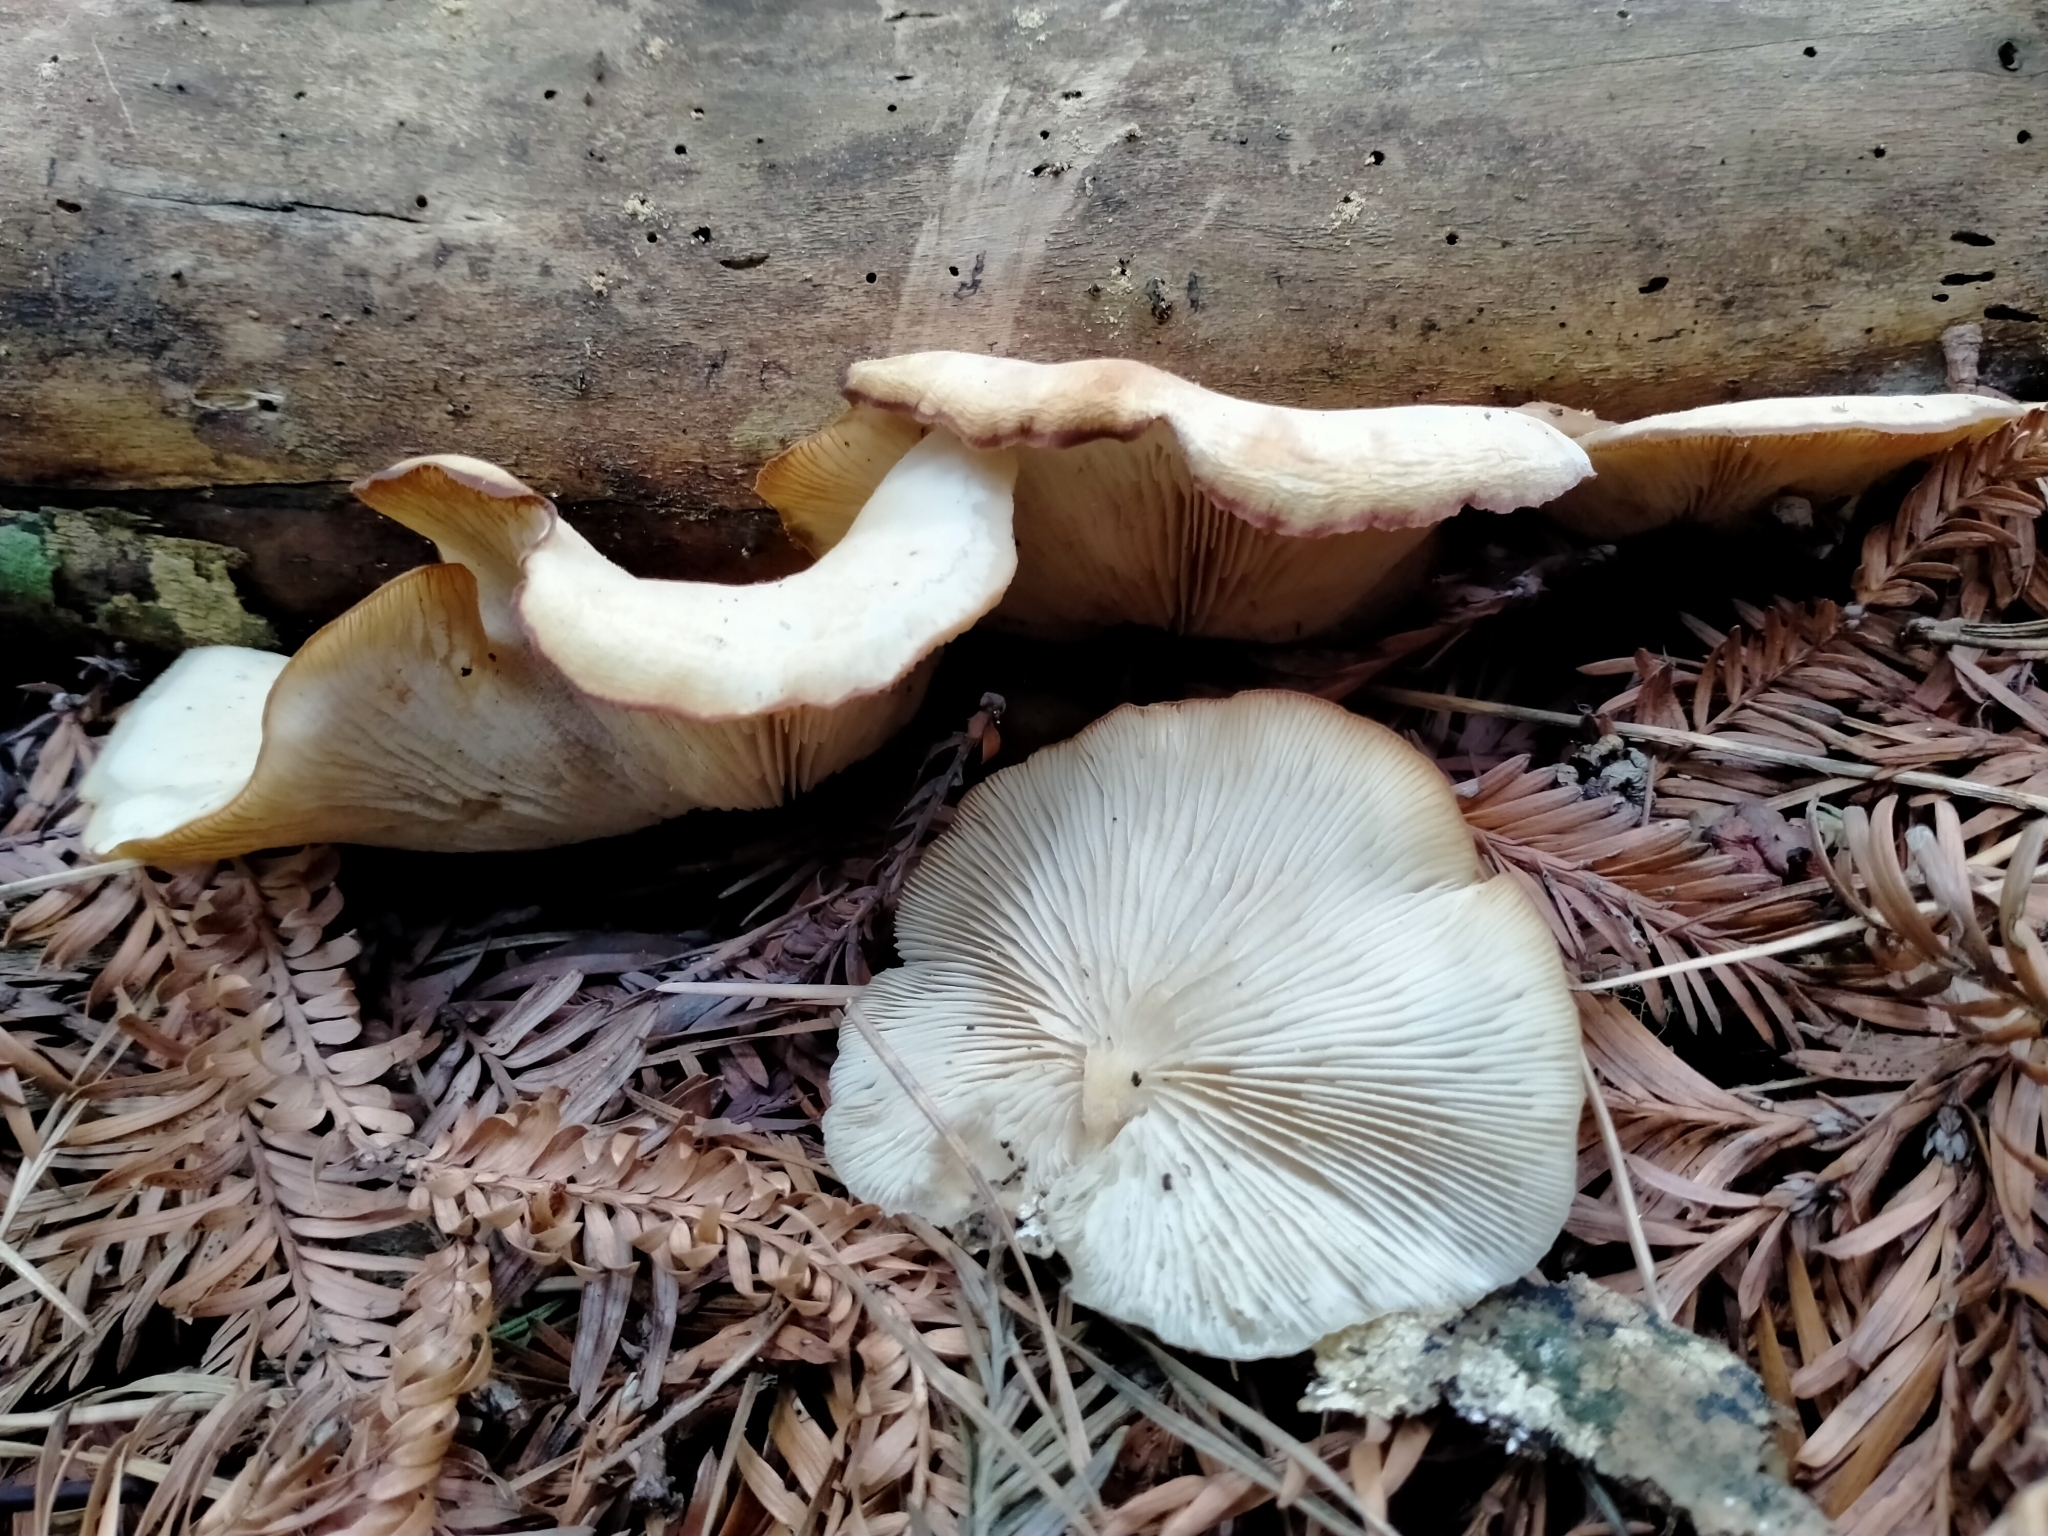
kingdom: Fungi
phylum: Basidiomycota
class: Agaricomycetes
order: Agaricales
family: Tricholomataceae
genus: Conchomyces
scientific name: Conchomyces bursiformis
